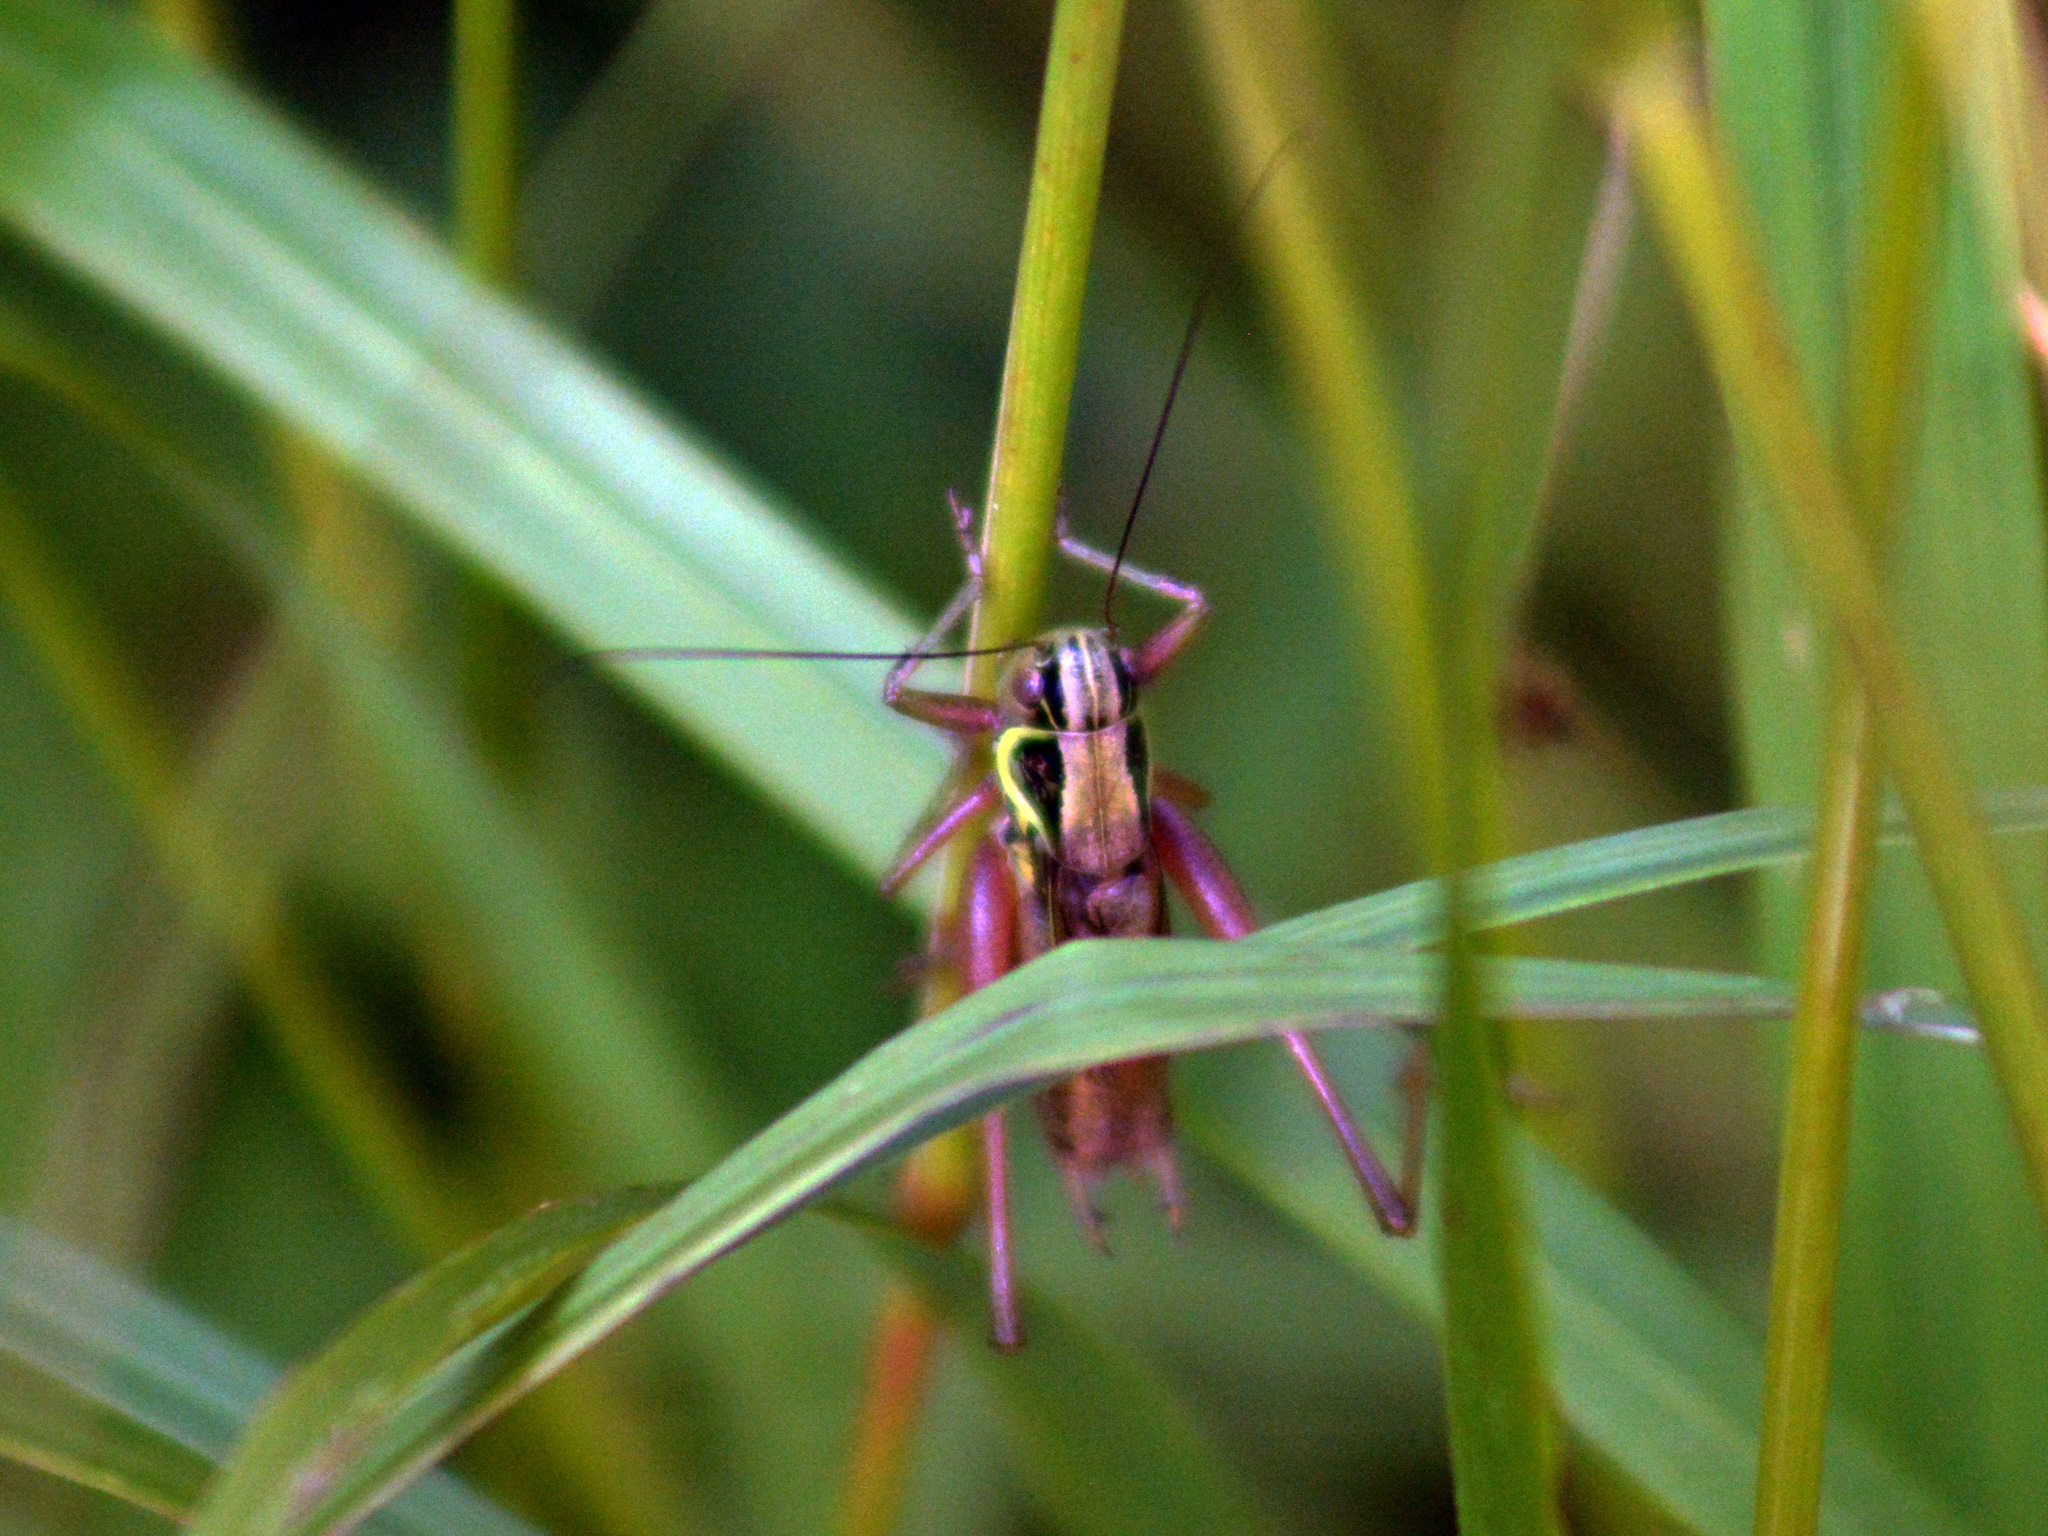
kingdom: Animalia
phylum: Arthropoda
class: Insecta
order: Orthoptera
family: Tettigoniidae
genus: Roeseliana
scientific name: Roeseliana roeselii
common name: Roesel's bush cricket
